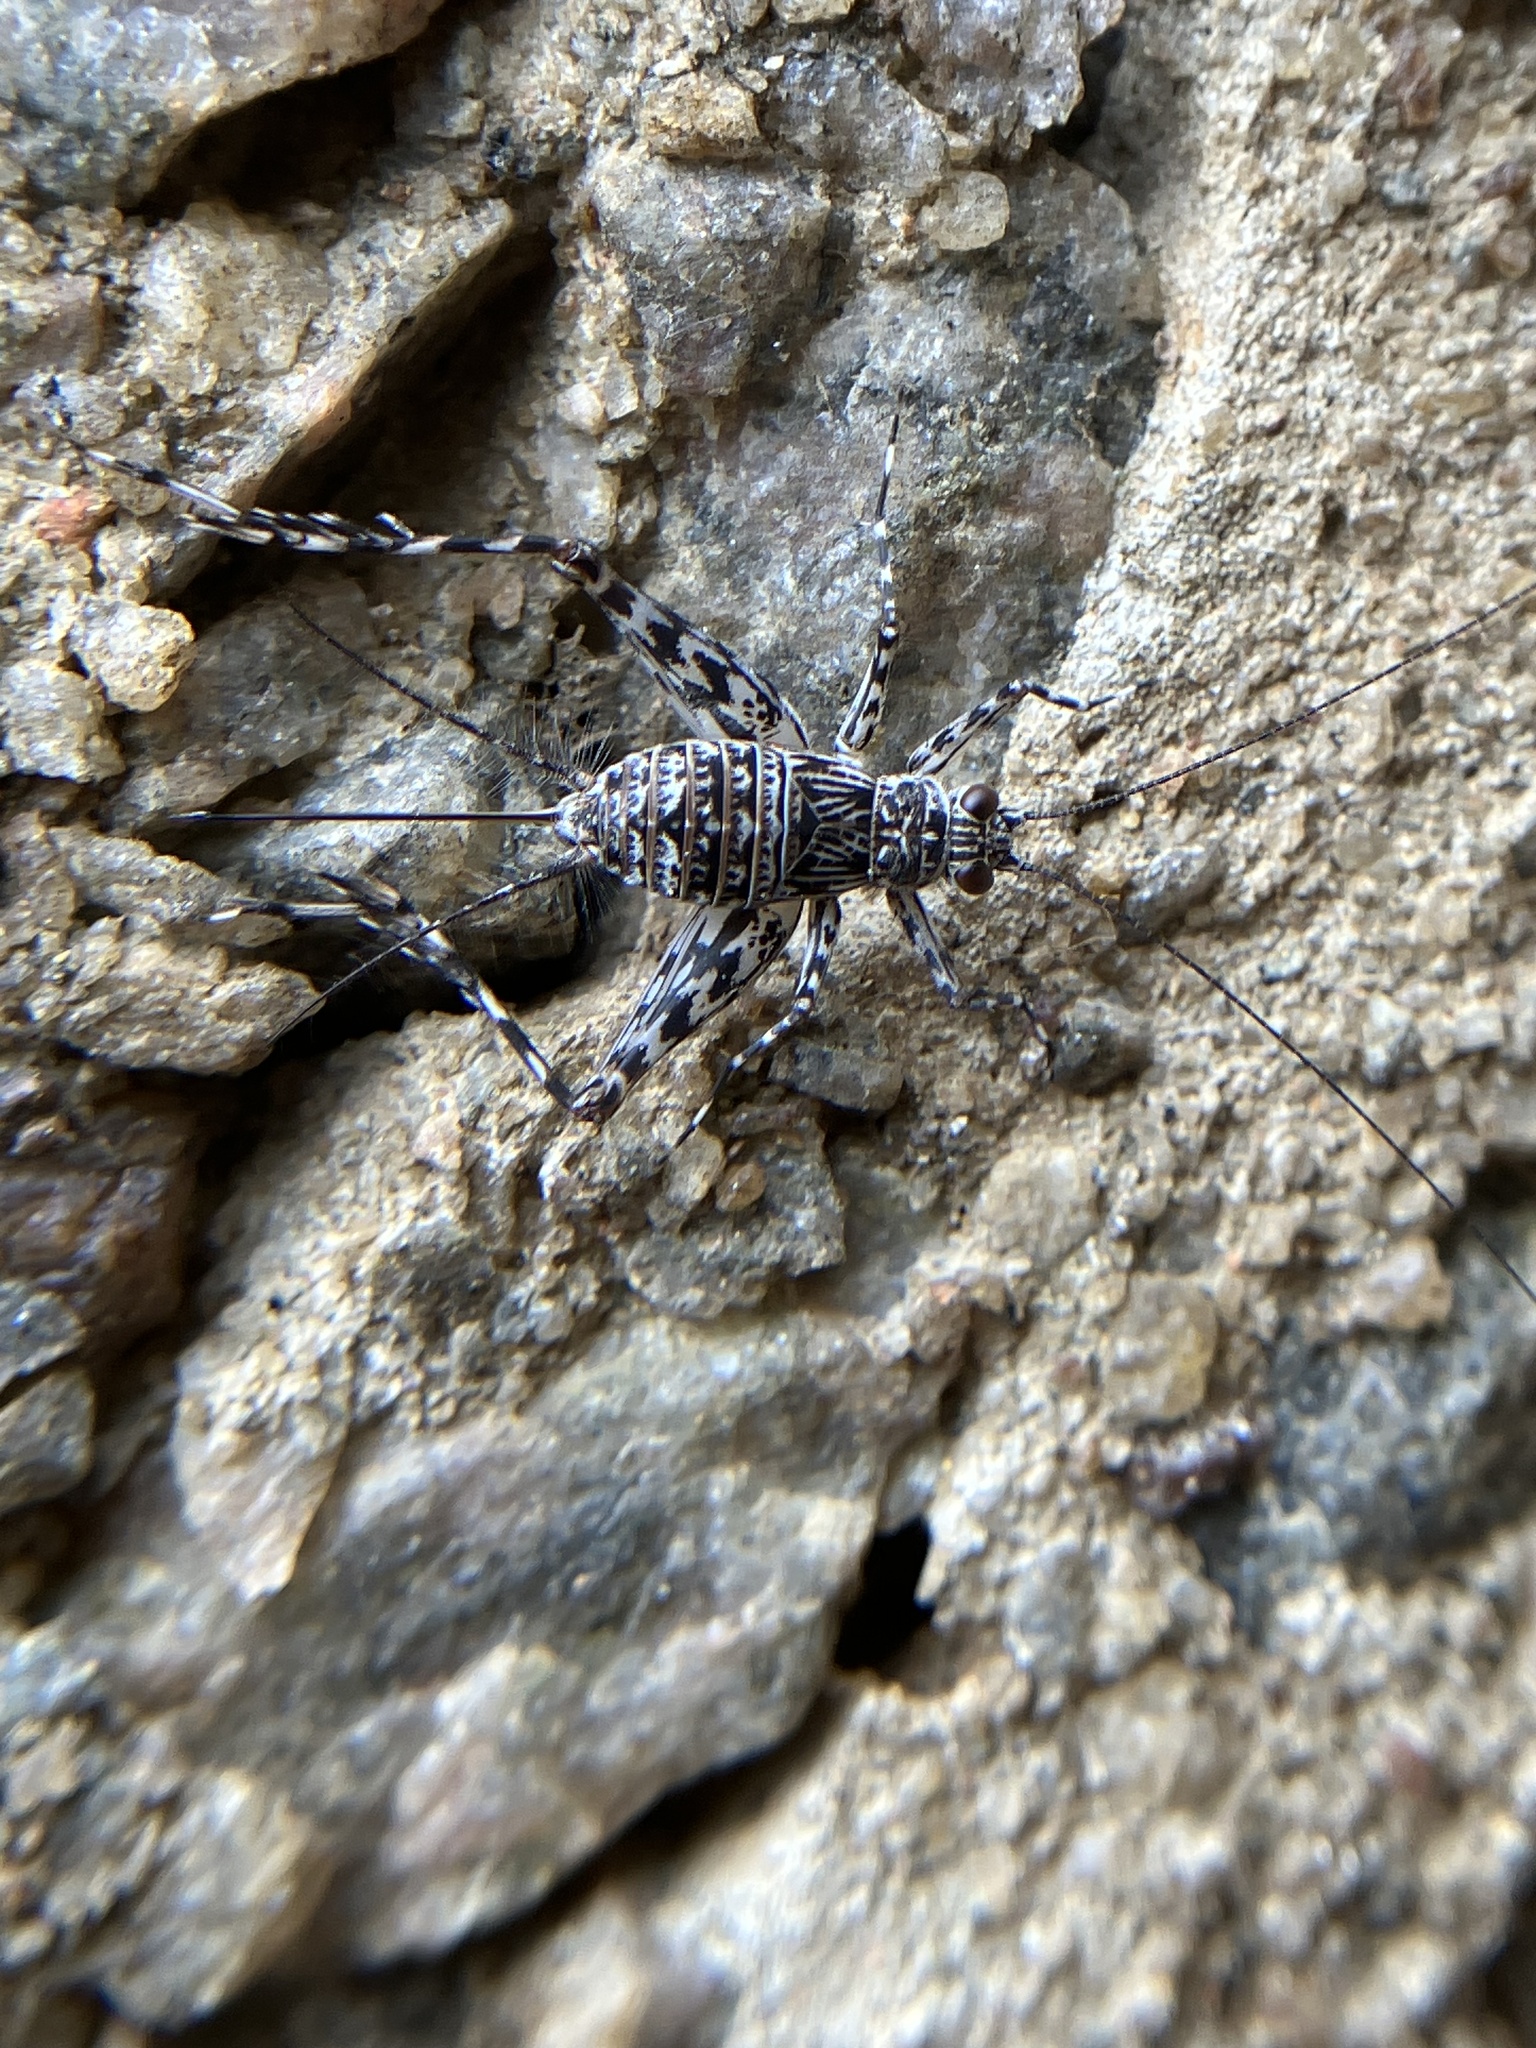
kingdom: Animalia
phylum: Arthropoda
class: Insecta
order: Orthoptera
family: Trigonidiidae
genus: Paranemobius
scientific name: Paranemobius pictus
